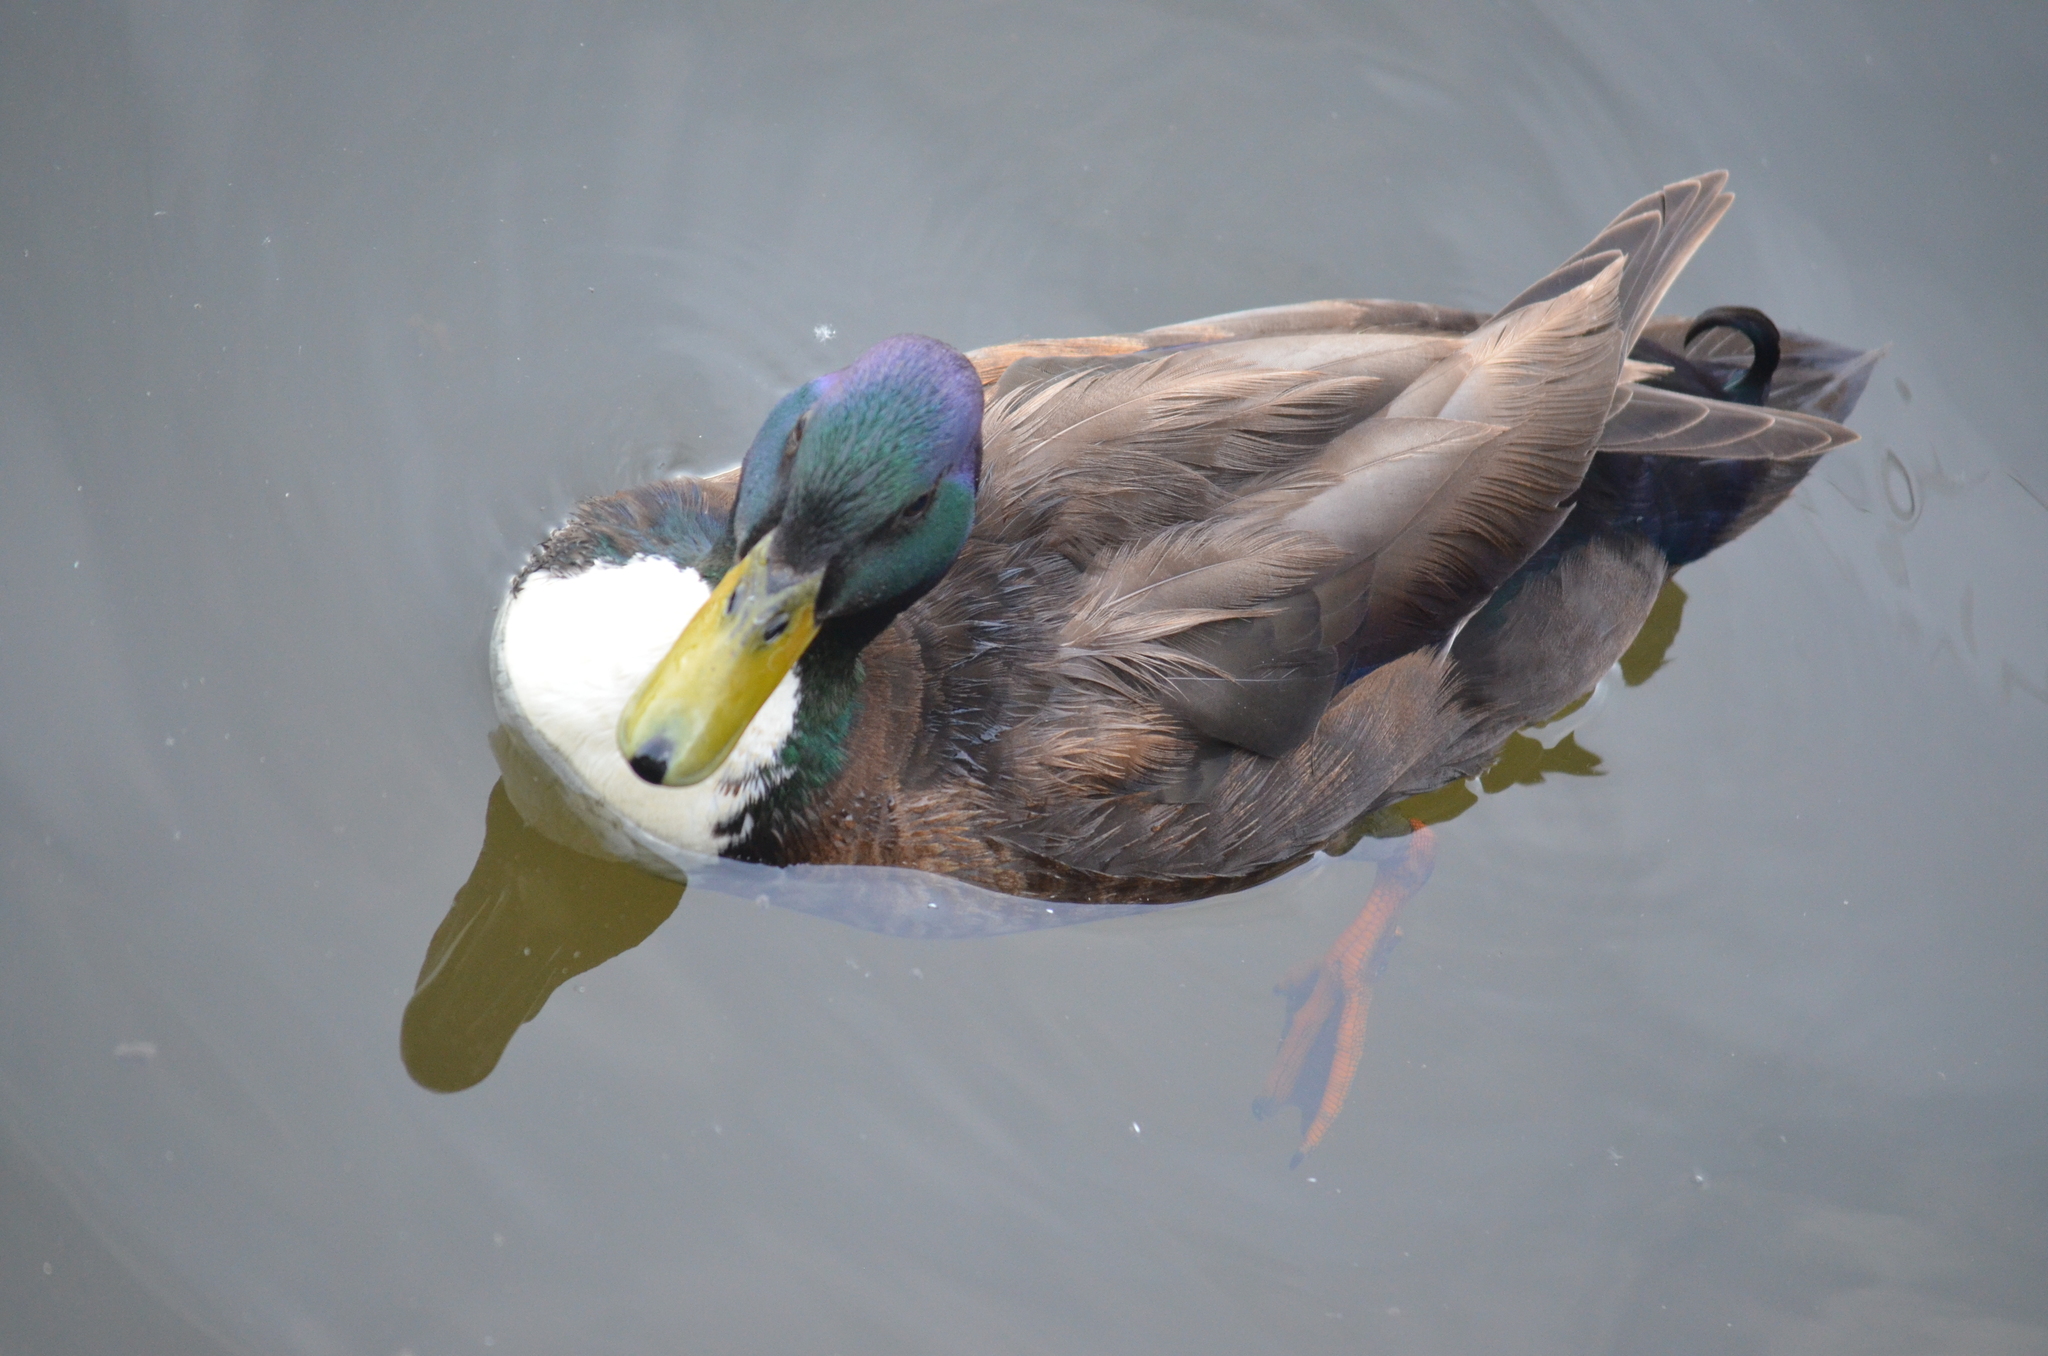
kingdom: Animalia
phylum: Chordata
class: Aves
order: Anseriformes
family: Anatidae
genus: Anas
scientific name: Anas platyrhynchos
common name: Mallard
